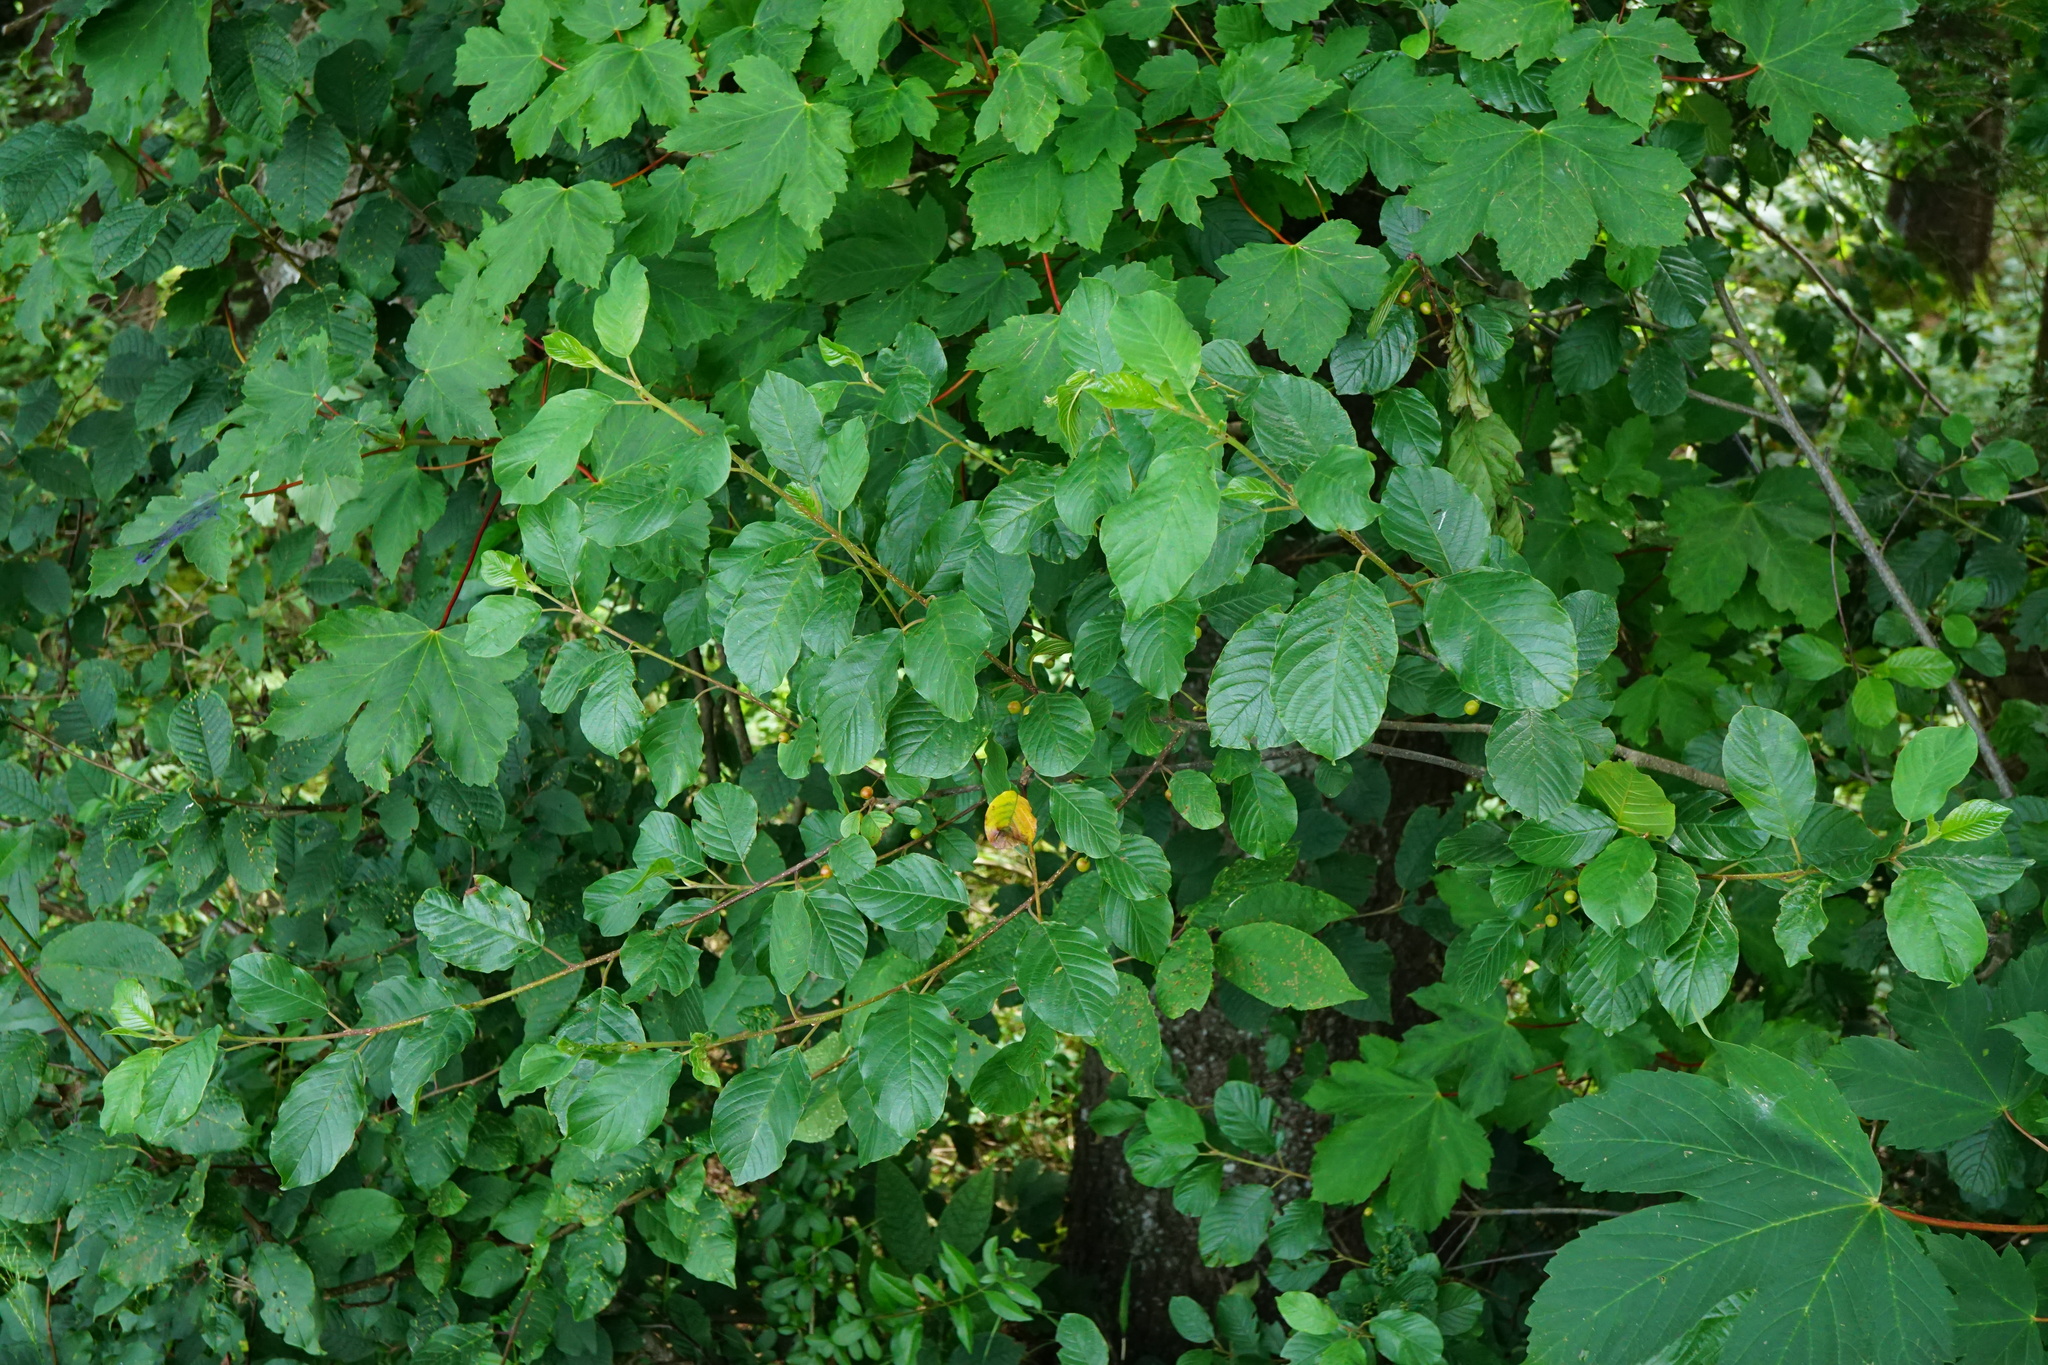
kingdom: Plantae
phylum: Tracheophyta
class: Magnoliopsida
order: Rosales
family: Rhamnaceae
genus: Frangula
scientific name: Frangula alnus
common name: Alder buckthorn
